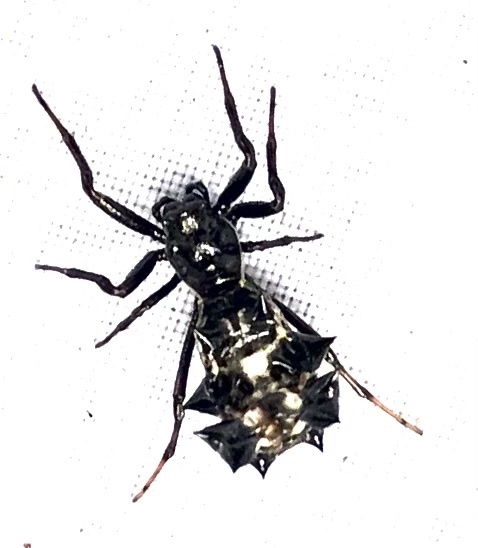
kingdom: Animalia
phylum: Arthropoda
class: Arachnida
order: Araneae
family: Araneidae
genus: Micrathena
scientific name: Micrathena gracilis
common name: Orb weavers
